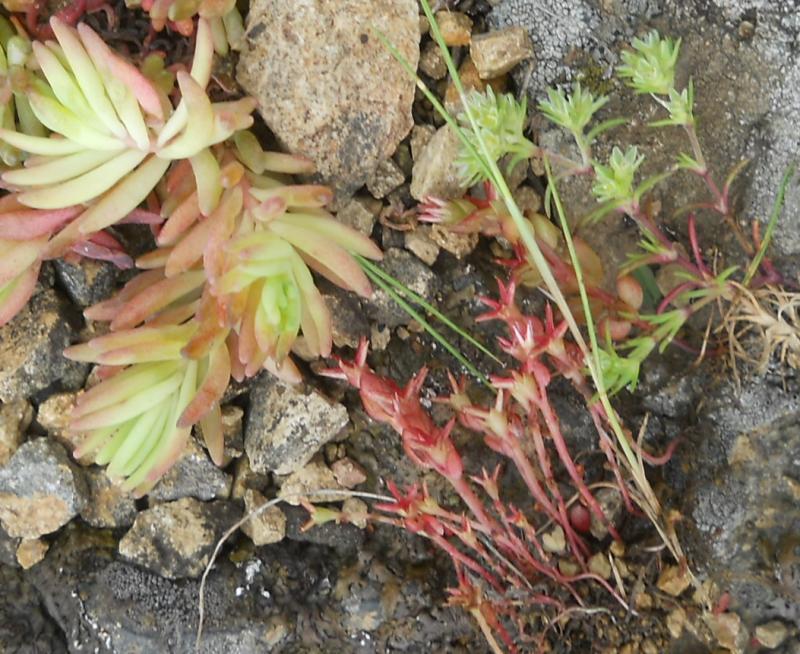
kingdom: Plantae
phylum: Tracheophyta
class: Magnoliopsida
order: Saxifragales
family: Crassulaceae
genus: Sedum
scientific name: Sedum cespitosum
